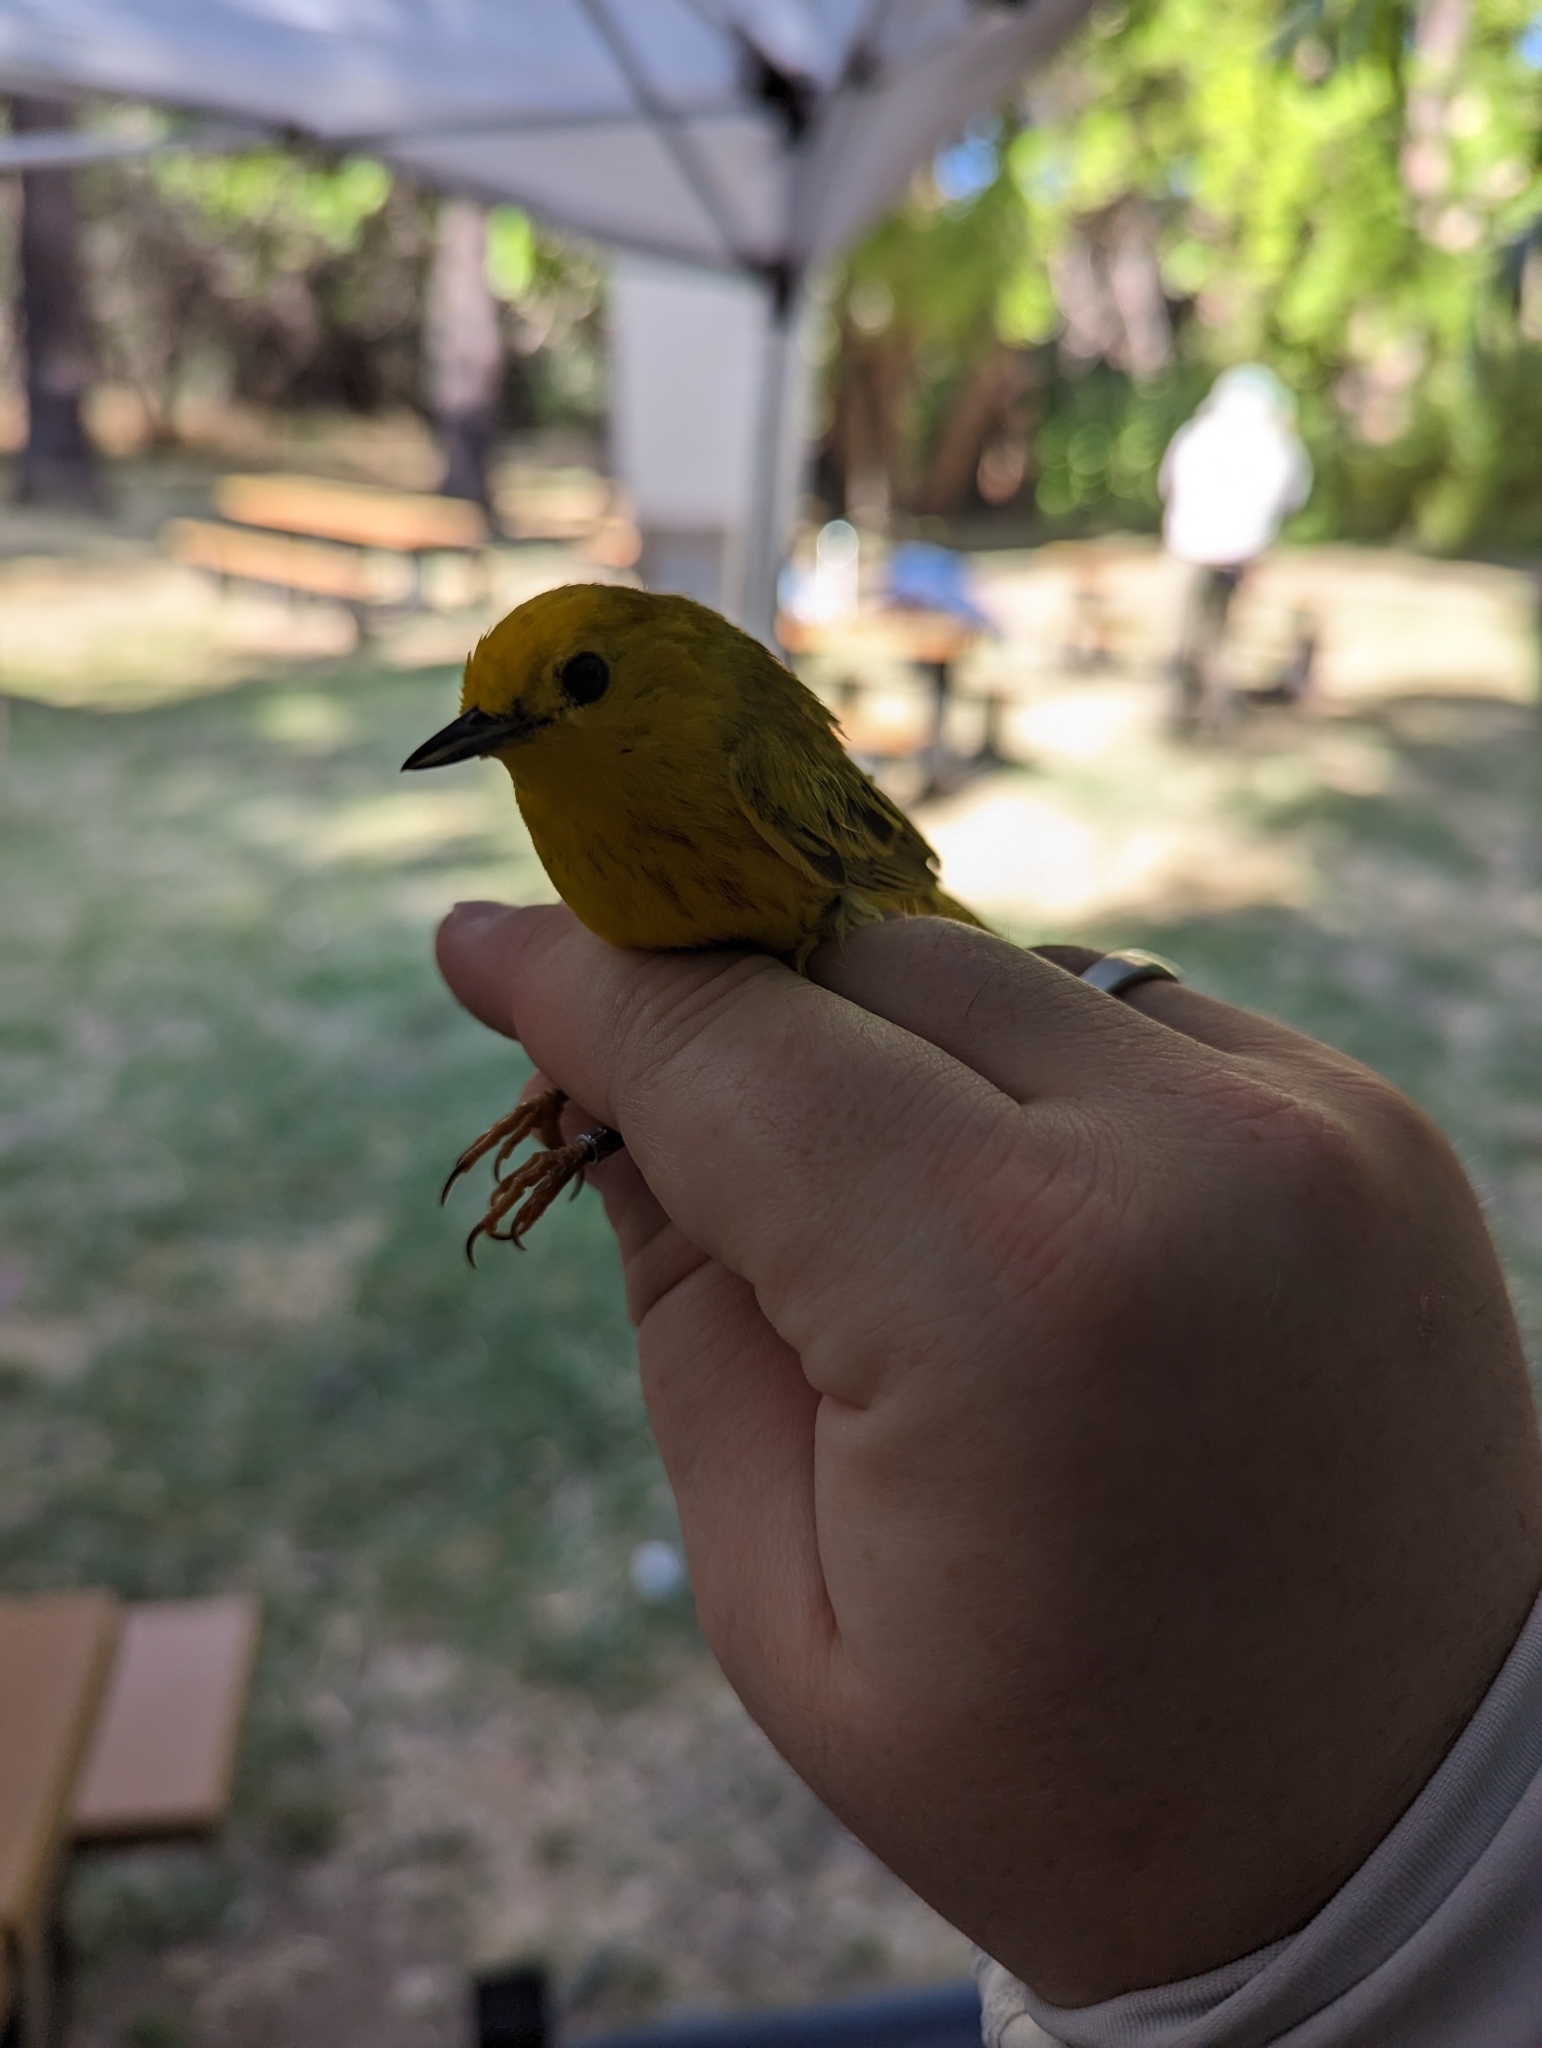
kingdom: Animalia
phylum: Chordata
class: Aves
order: Passeriformes
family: Parulidae
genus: Setophaga
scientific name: Setophaga petechia
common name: Yellow warbler
